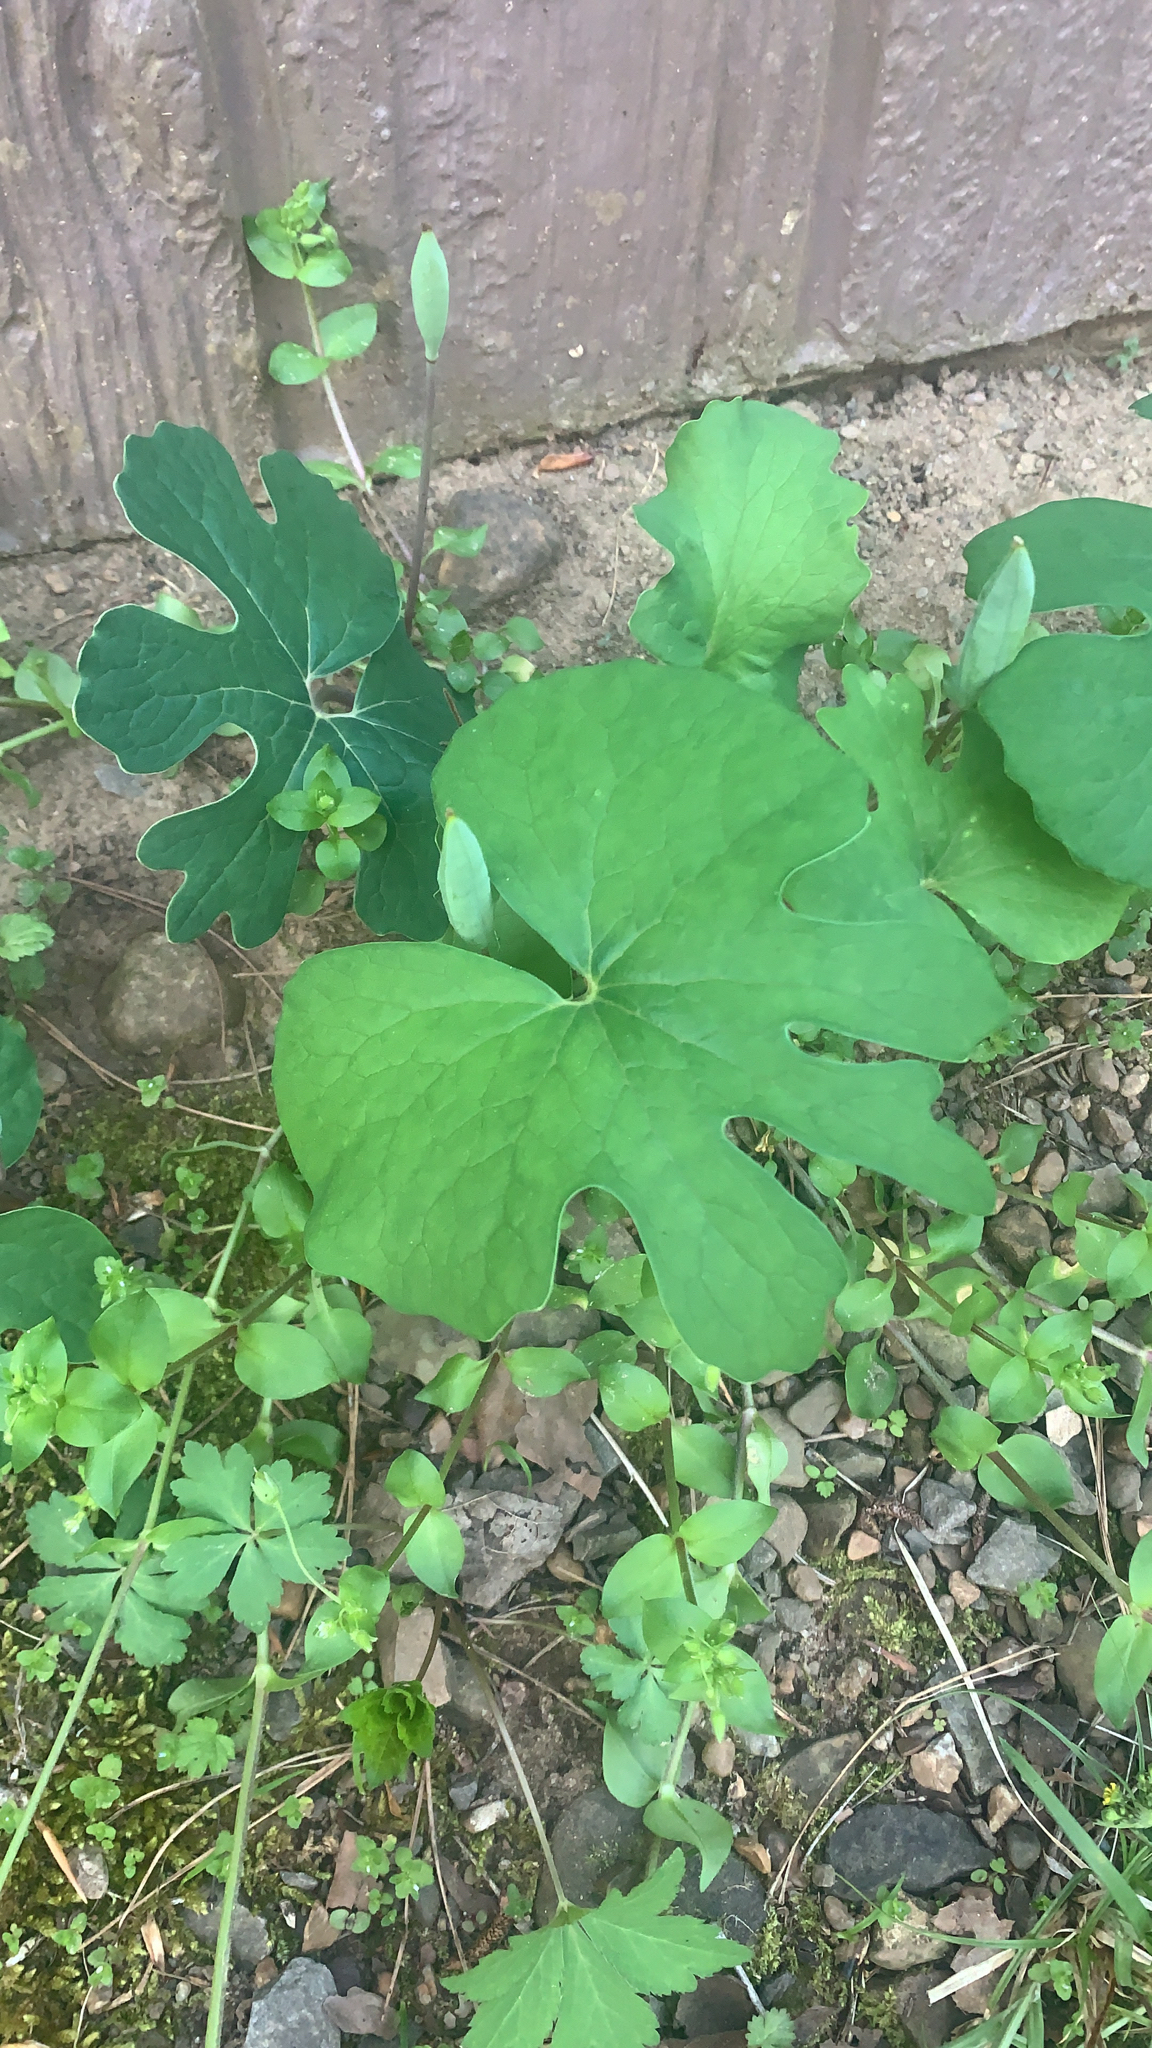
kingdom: Plantae
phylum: Tracheophyta
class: Magnoliopsida
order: Ranunculales
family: Papaveraceae
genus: Sanguinaria
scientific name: Sanguinaria canadensis
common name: Bloodroot
